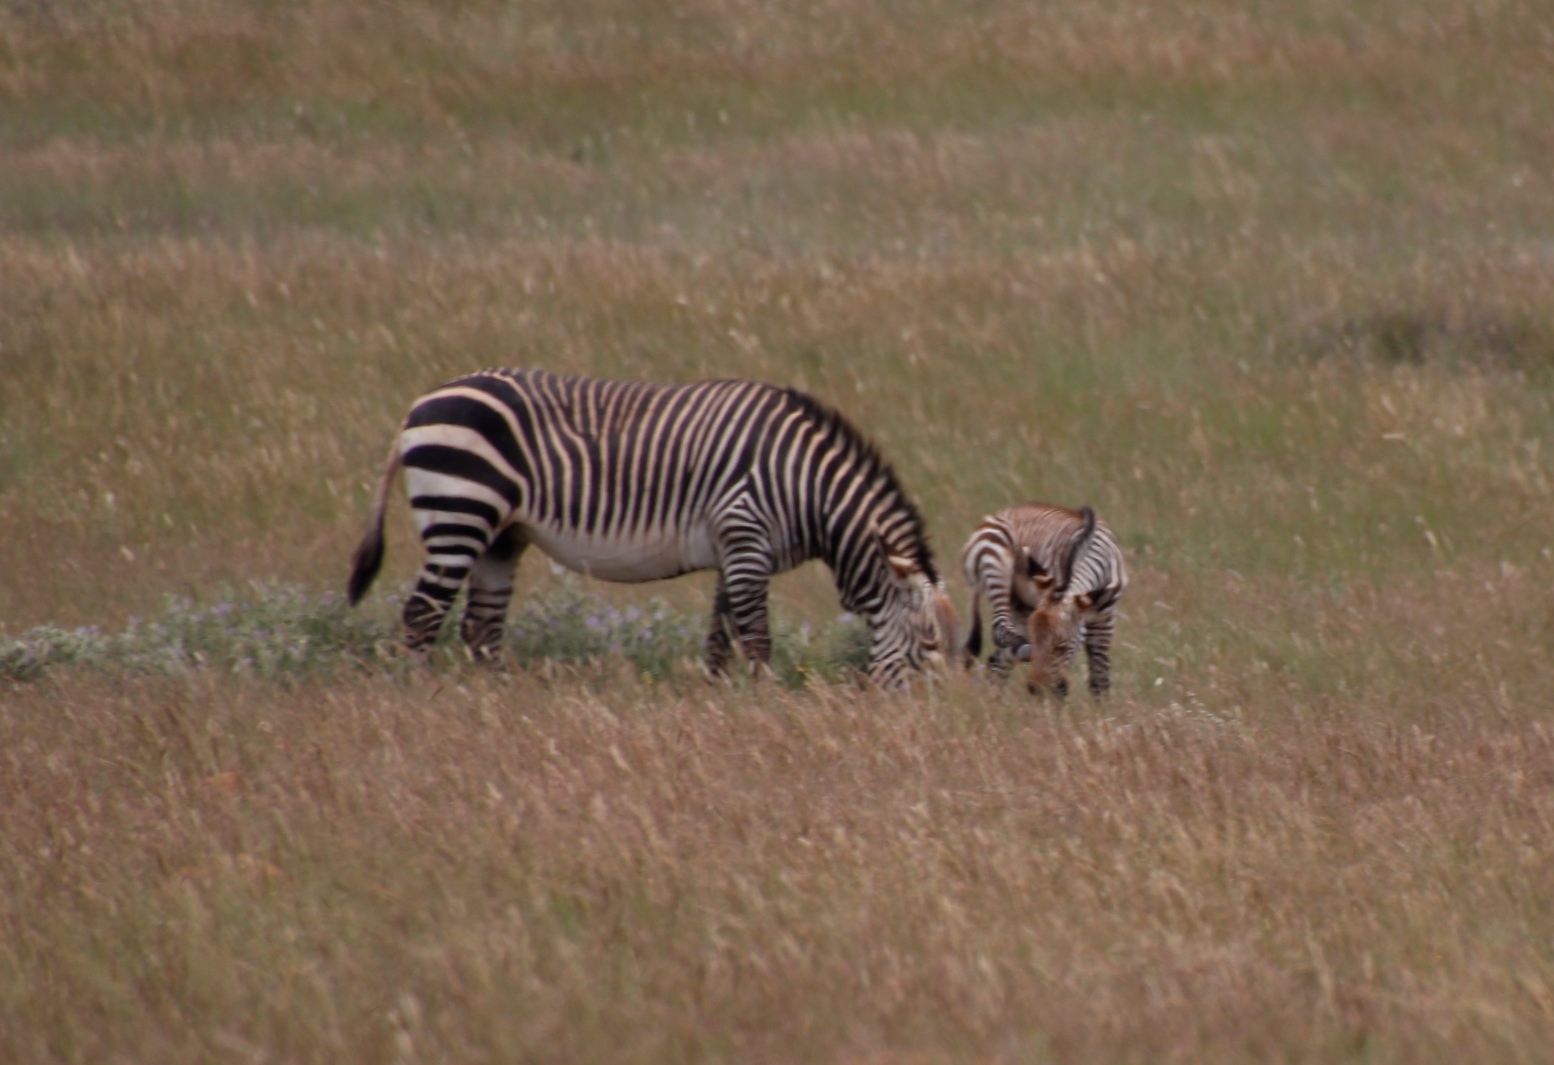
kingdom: Animalia
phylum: Chordata
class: Mammalia
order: Perissodactyla
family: Equidae
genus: Equus
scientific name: Equus zebra
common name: Mountain zebra
